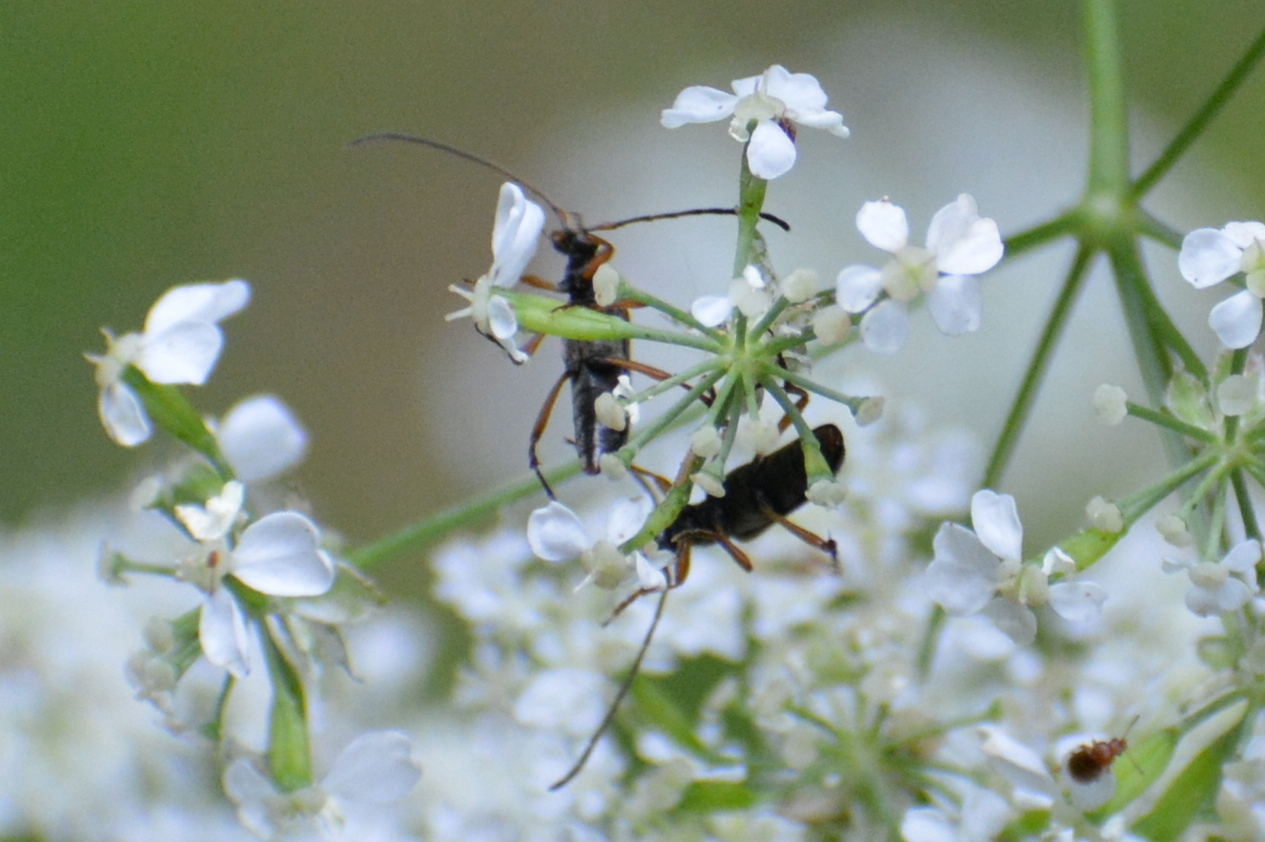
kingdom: Animalia
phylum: Arthropoda
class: Insecta
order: Coleoptera
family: Cerambycidae
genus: Alosterna
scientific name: Alosterna tabacicolor
